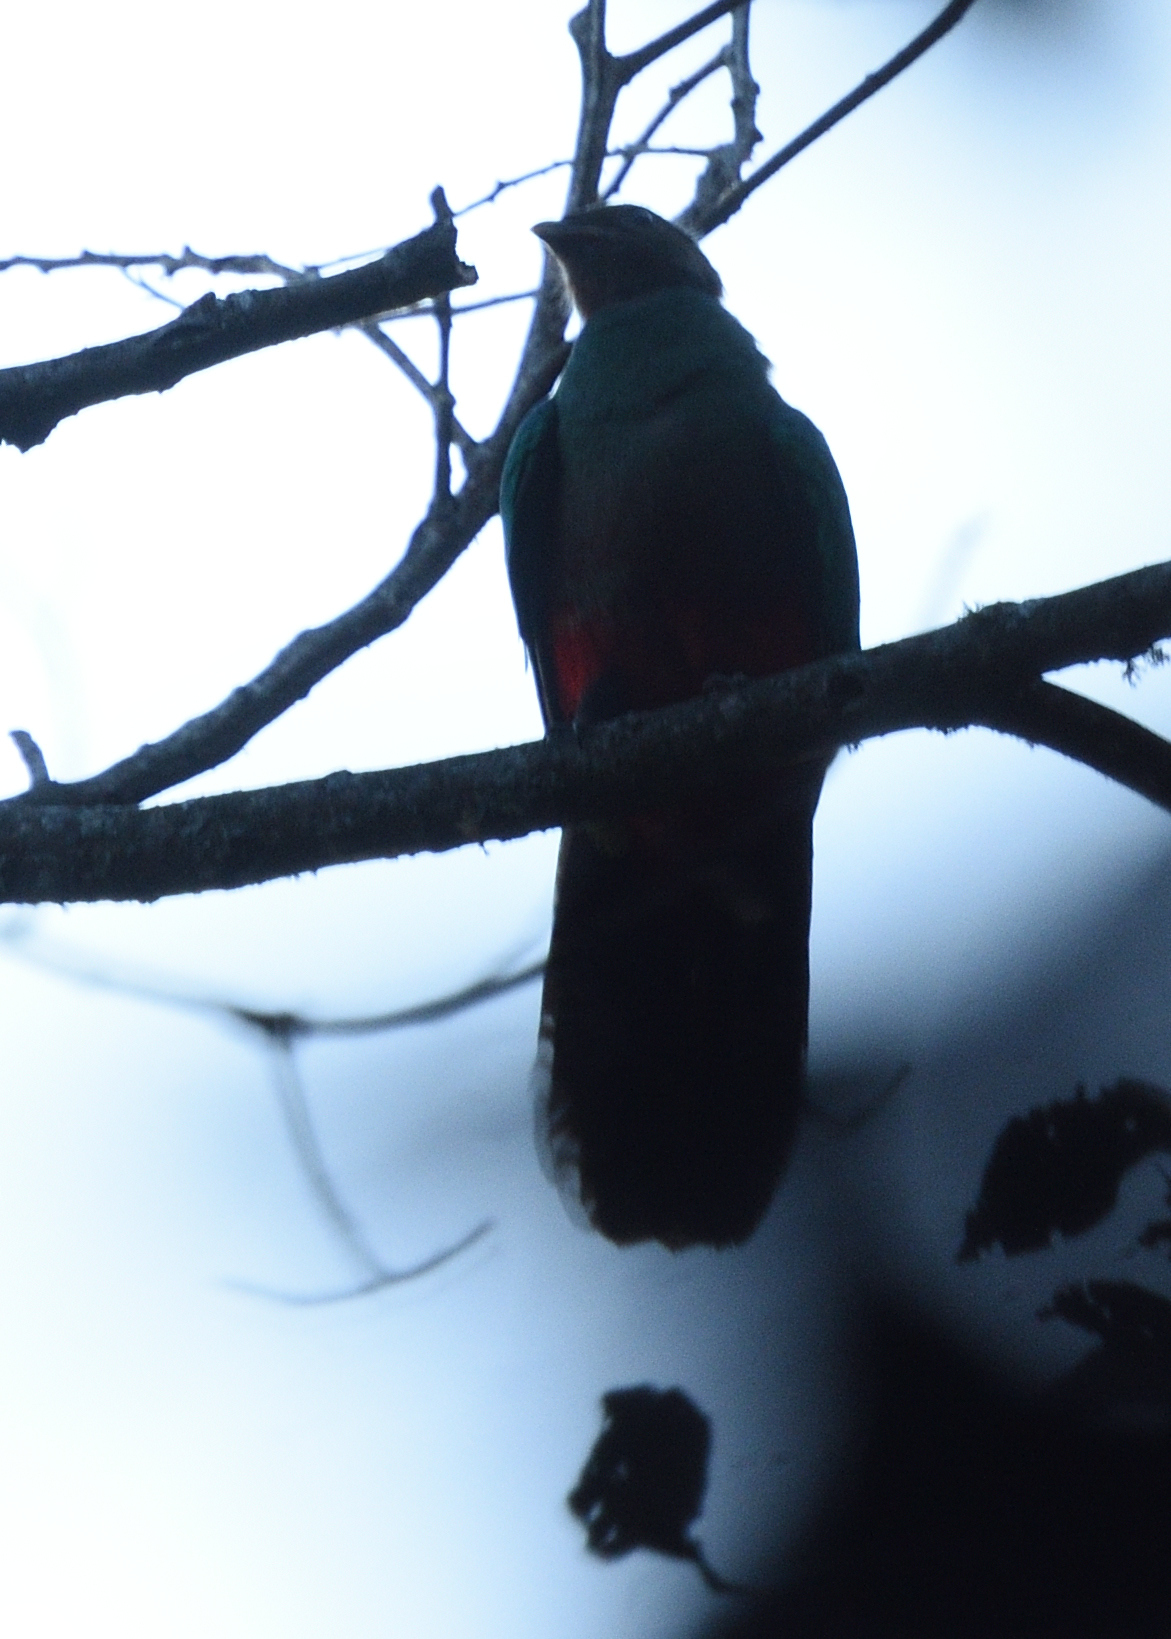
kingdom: Animalia
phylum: Chordata
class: Aves
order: Trogoniformes
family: Trogonidae
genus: Pharomachrus
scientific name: Pharomachrus fulgidus
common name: White-tipped quetzal
